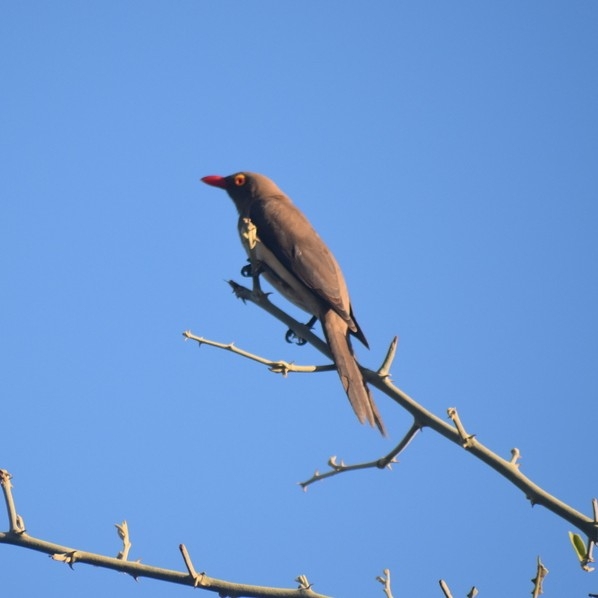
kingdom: Animalia
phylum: Chordata
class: Aves
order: Passeriformes
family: Buphagidae
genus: Buphagus
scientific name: Buphagus erythrorhynchus
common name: Red-billed oxpecker
